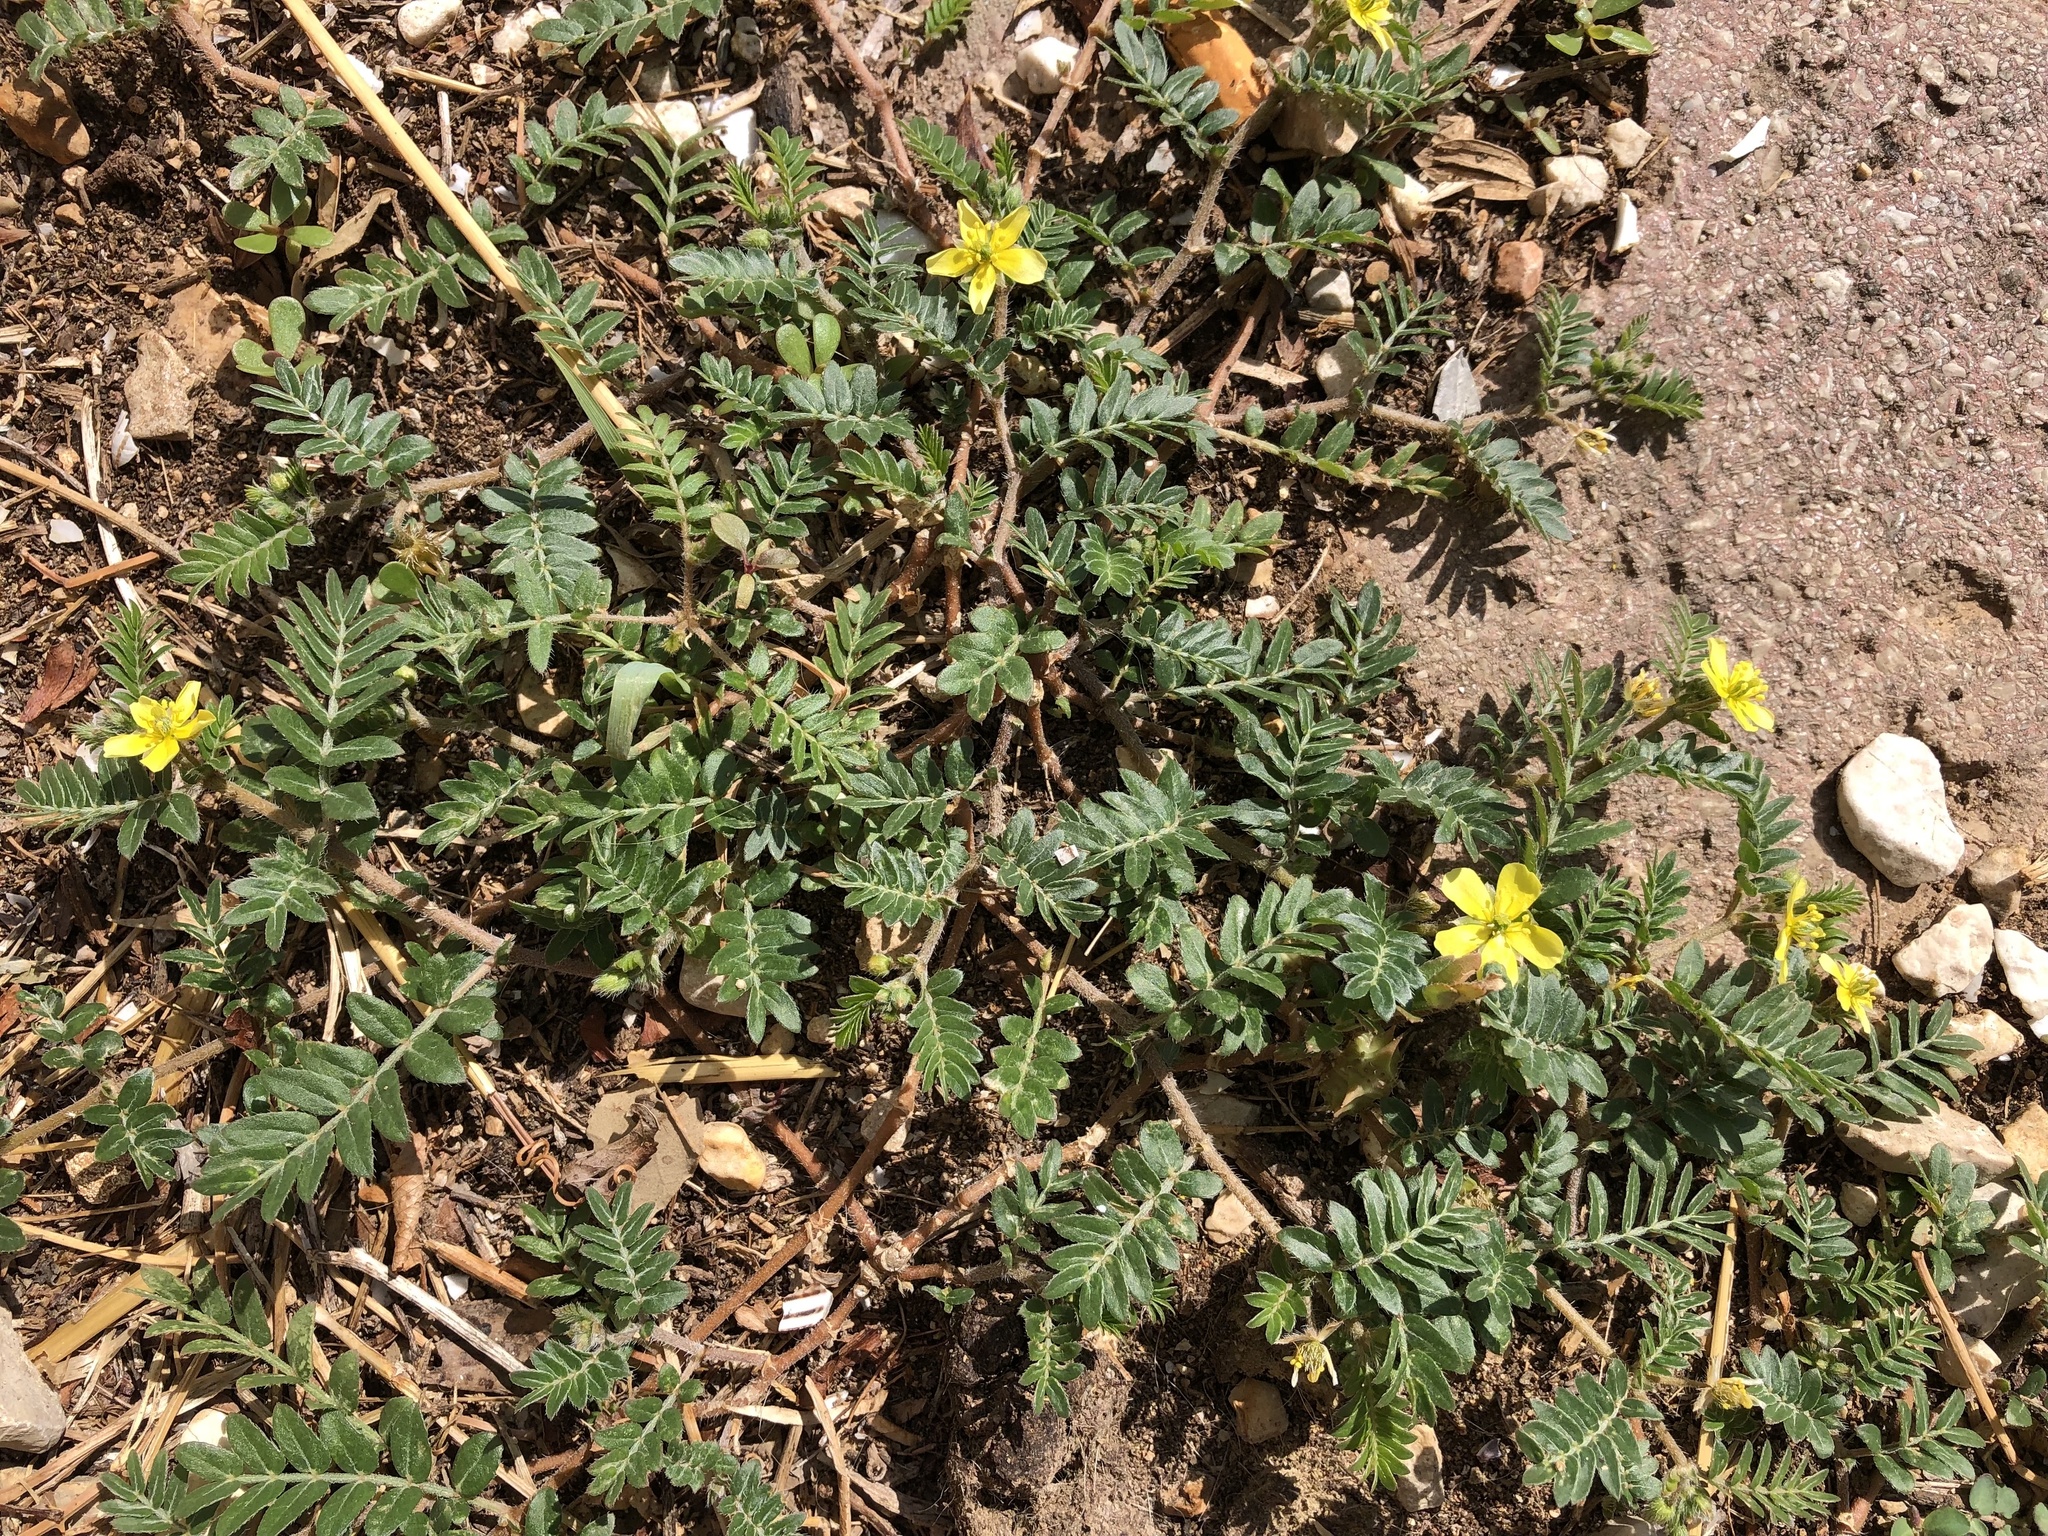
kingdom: Plantae
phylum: Tracheophyta
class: Magnoliopsida
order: Zygophyllales
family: Zygophyllaceae
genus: Tribulus
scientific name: Tribulus terrestris
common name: Puncturevine
